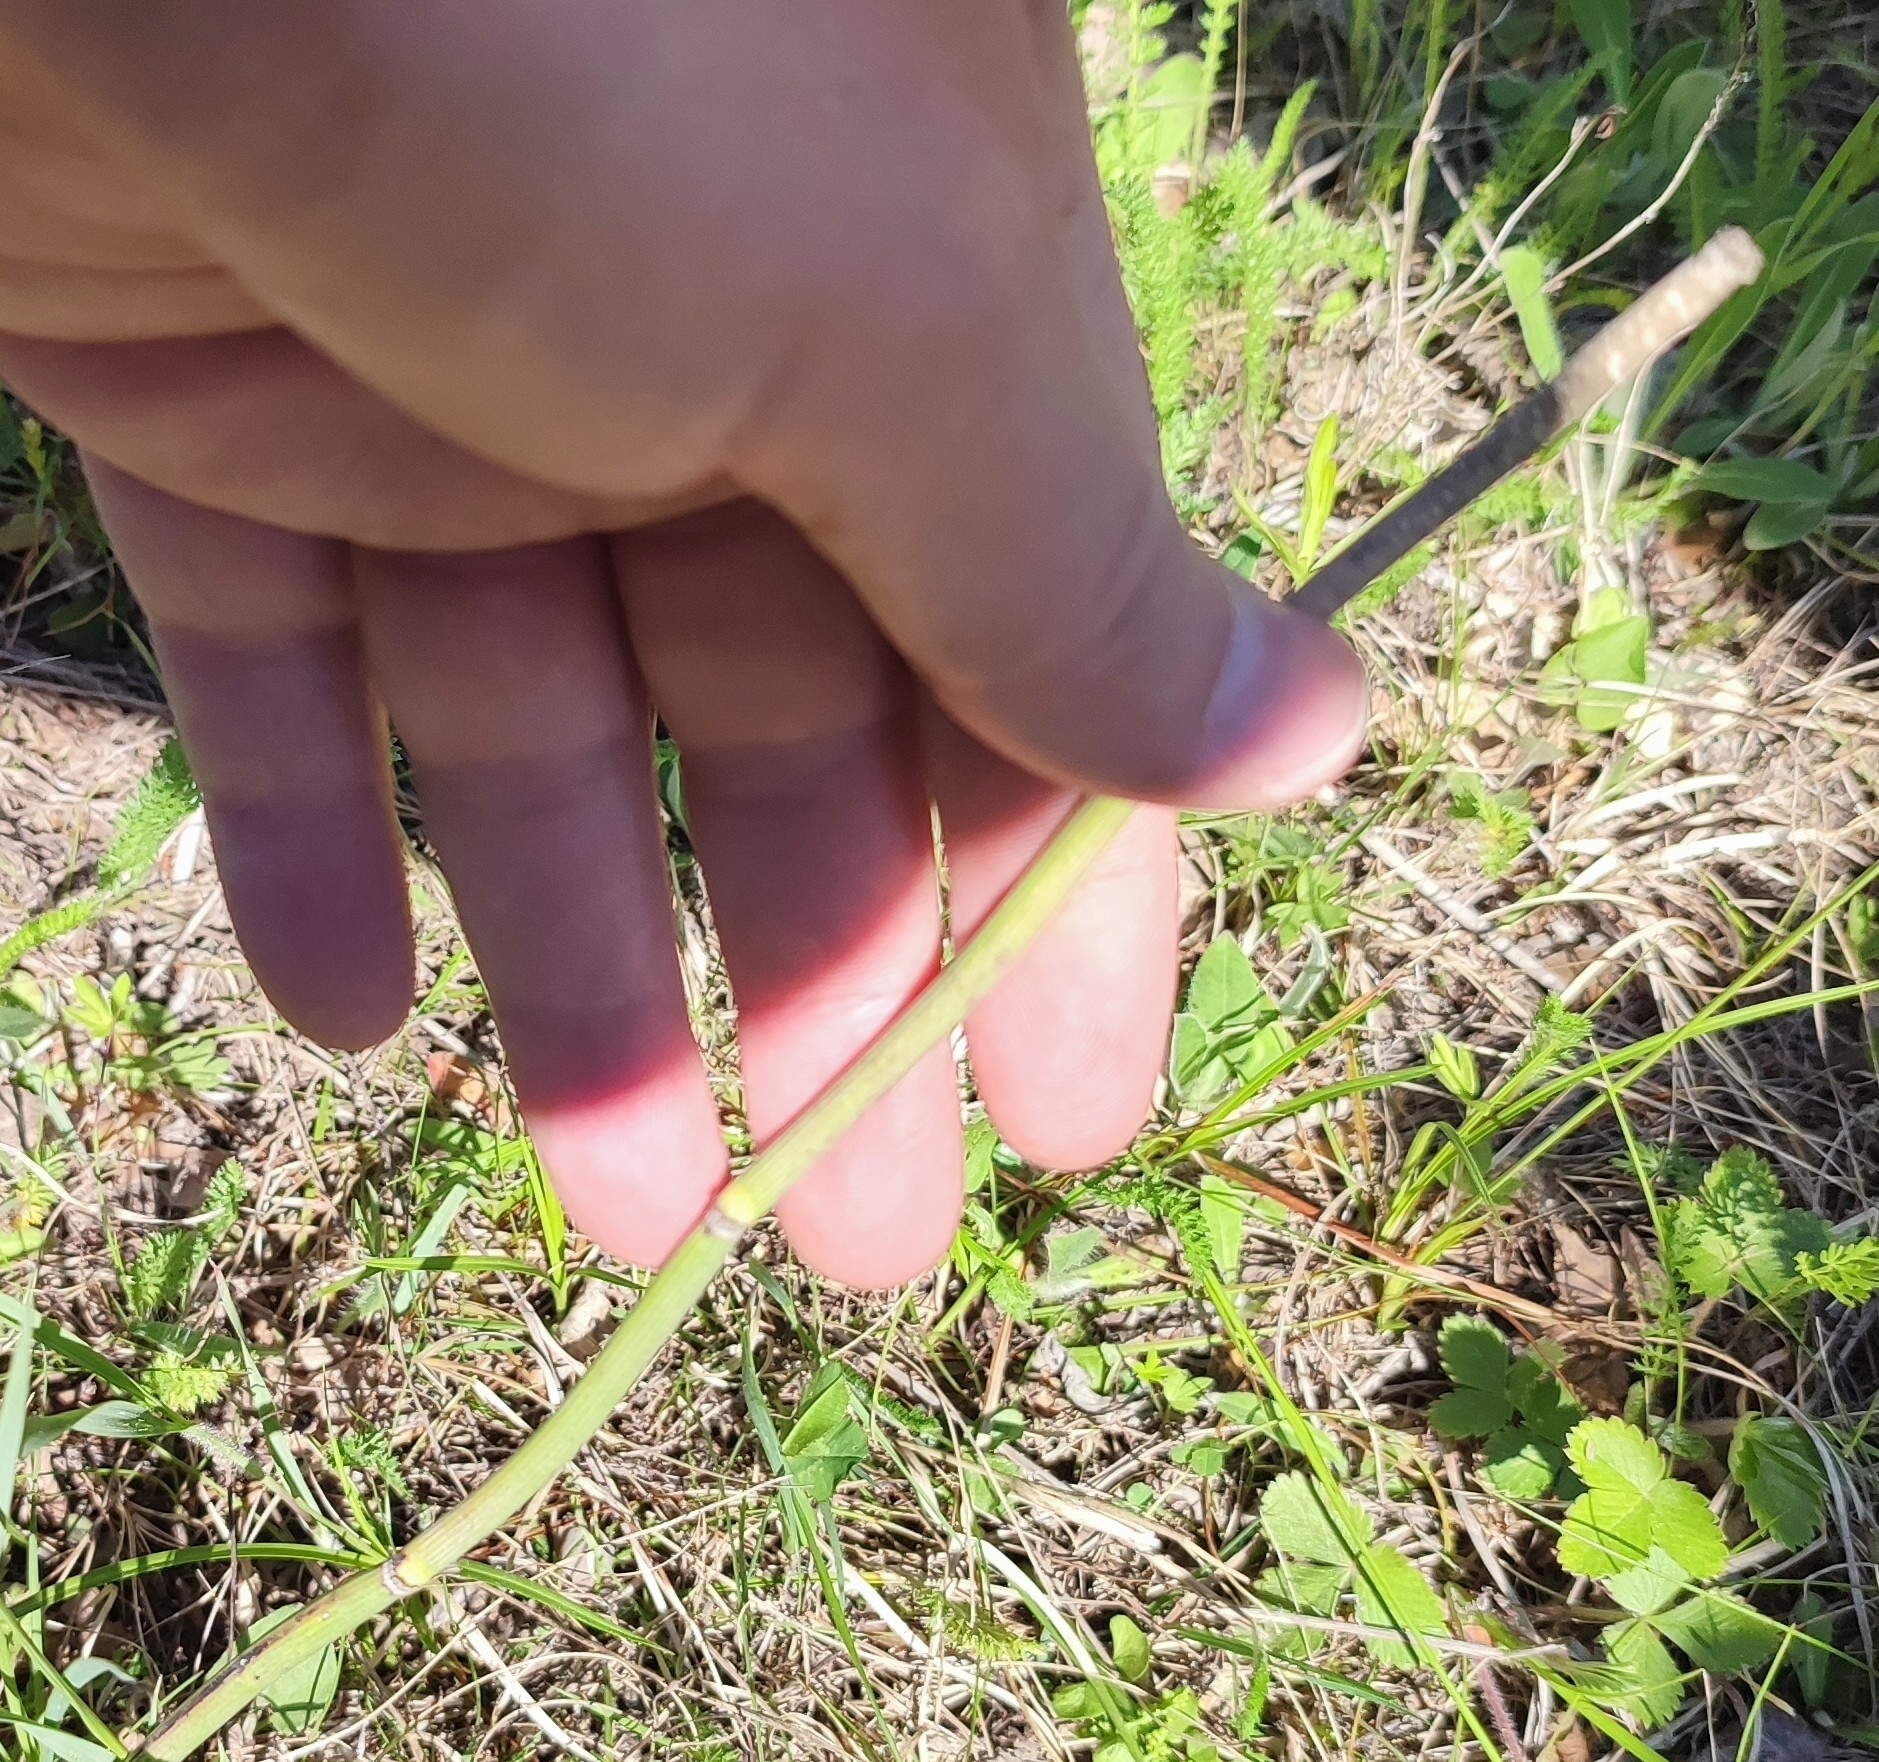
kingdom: Plantae
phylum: Tracheophyta
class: Polypodiopsida
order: Equisetales
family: Equisetaceae
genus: Equisetum
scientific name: Equisetum hyemale
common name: Rough horsetail
